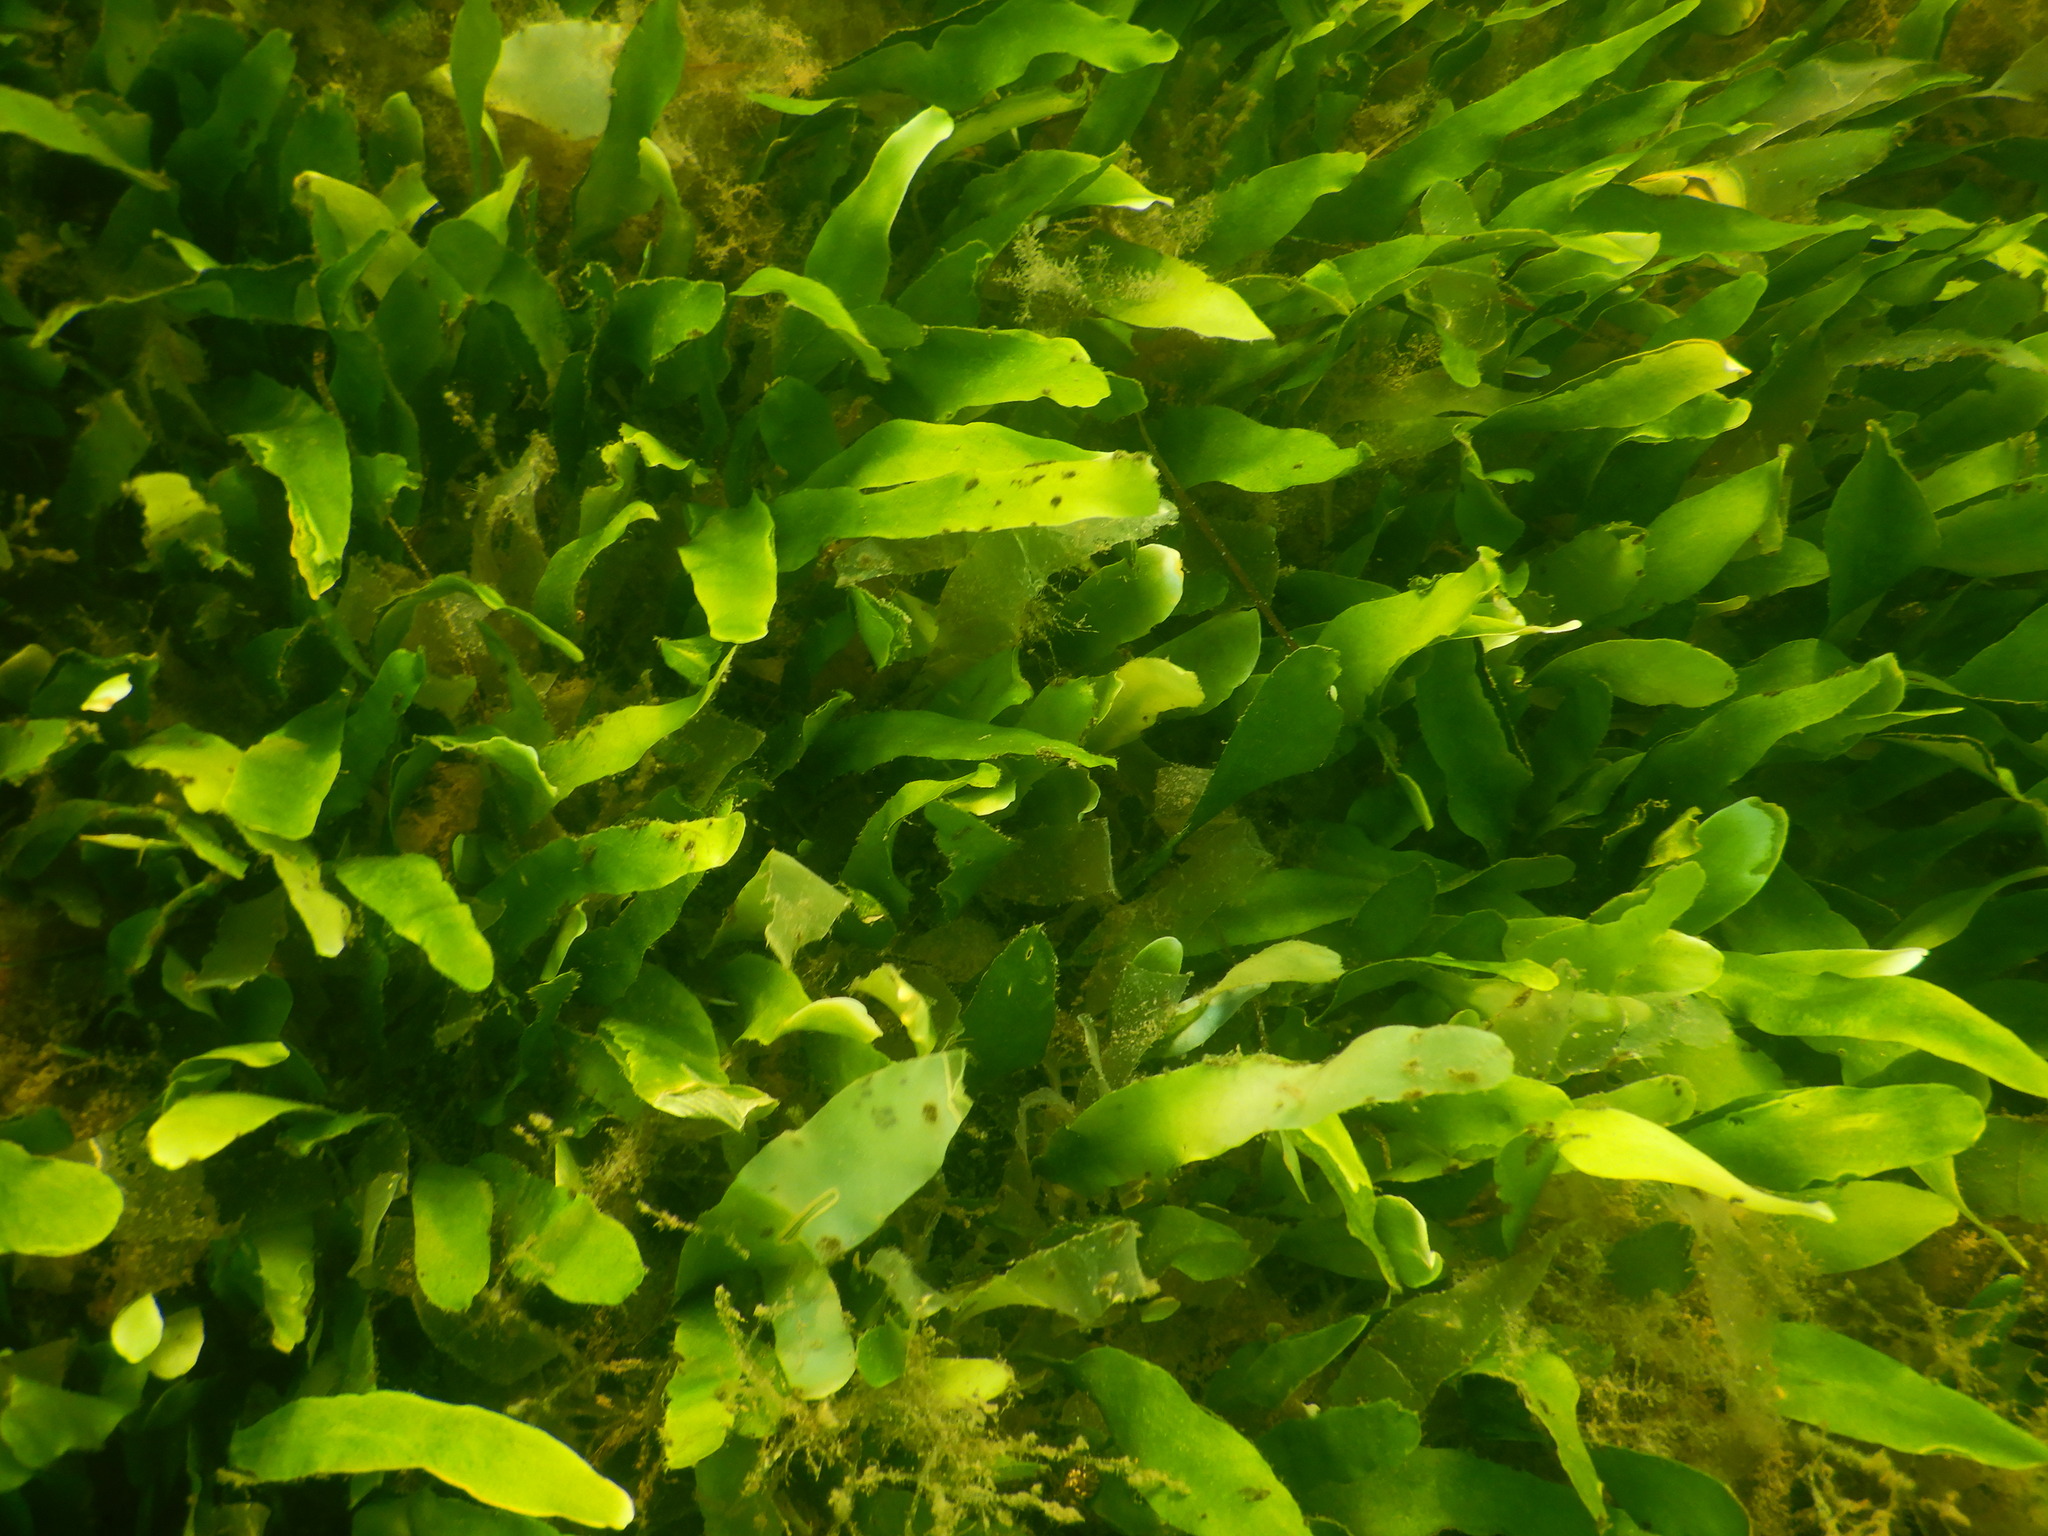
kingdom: Plantae
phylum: Chlorophyta
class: Ulvophyceae
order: Bryopsidales
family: Caulerpaceae
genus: Caulerpa
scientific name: Caulerpa prolifera
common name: Oval-blade algae
